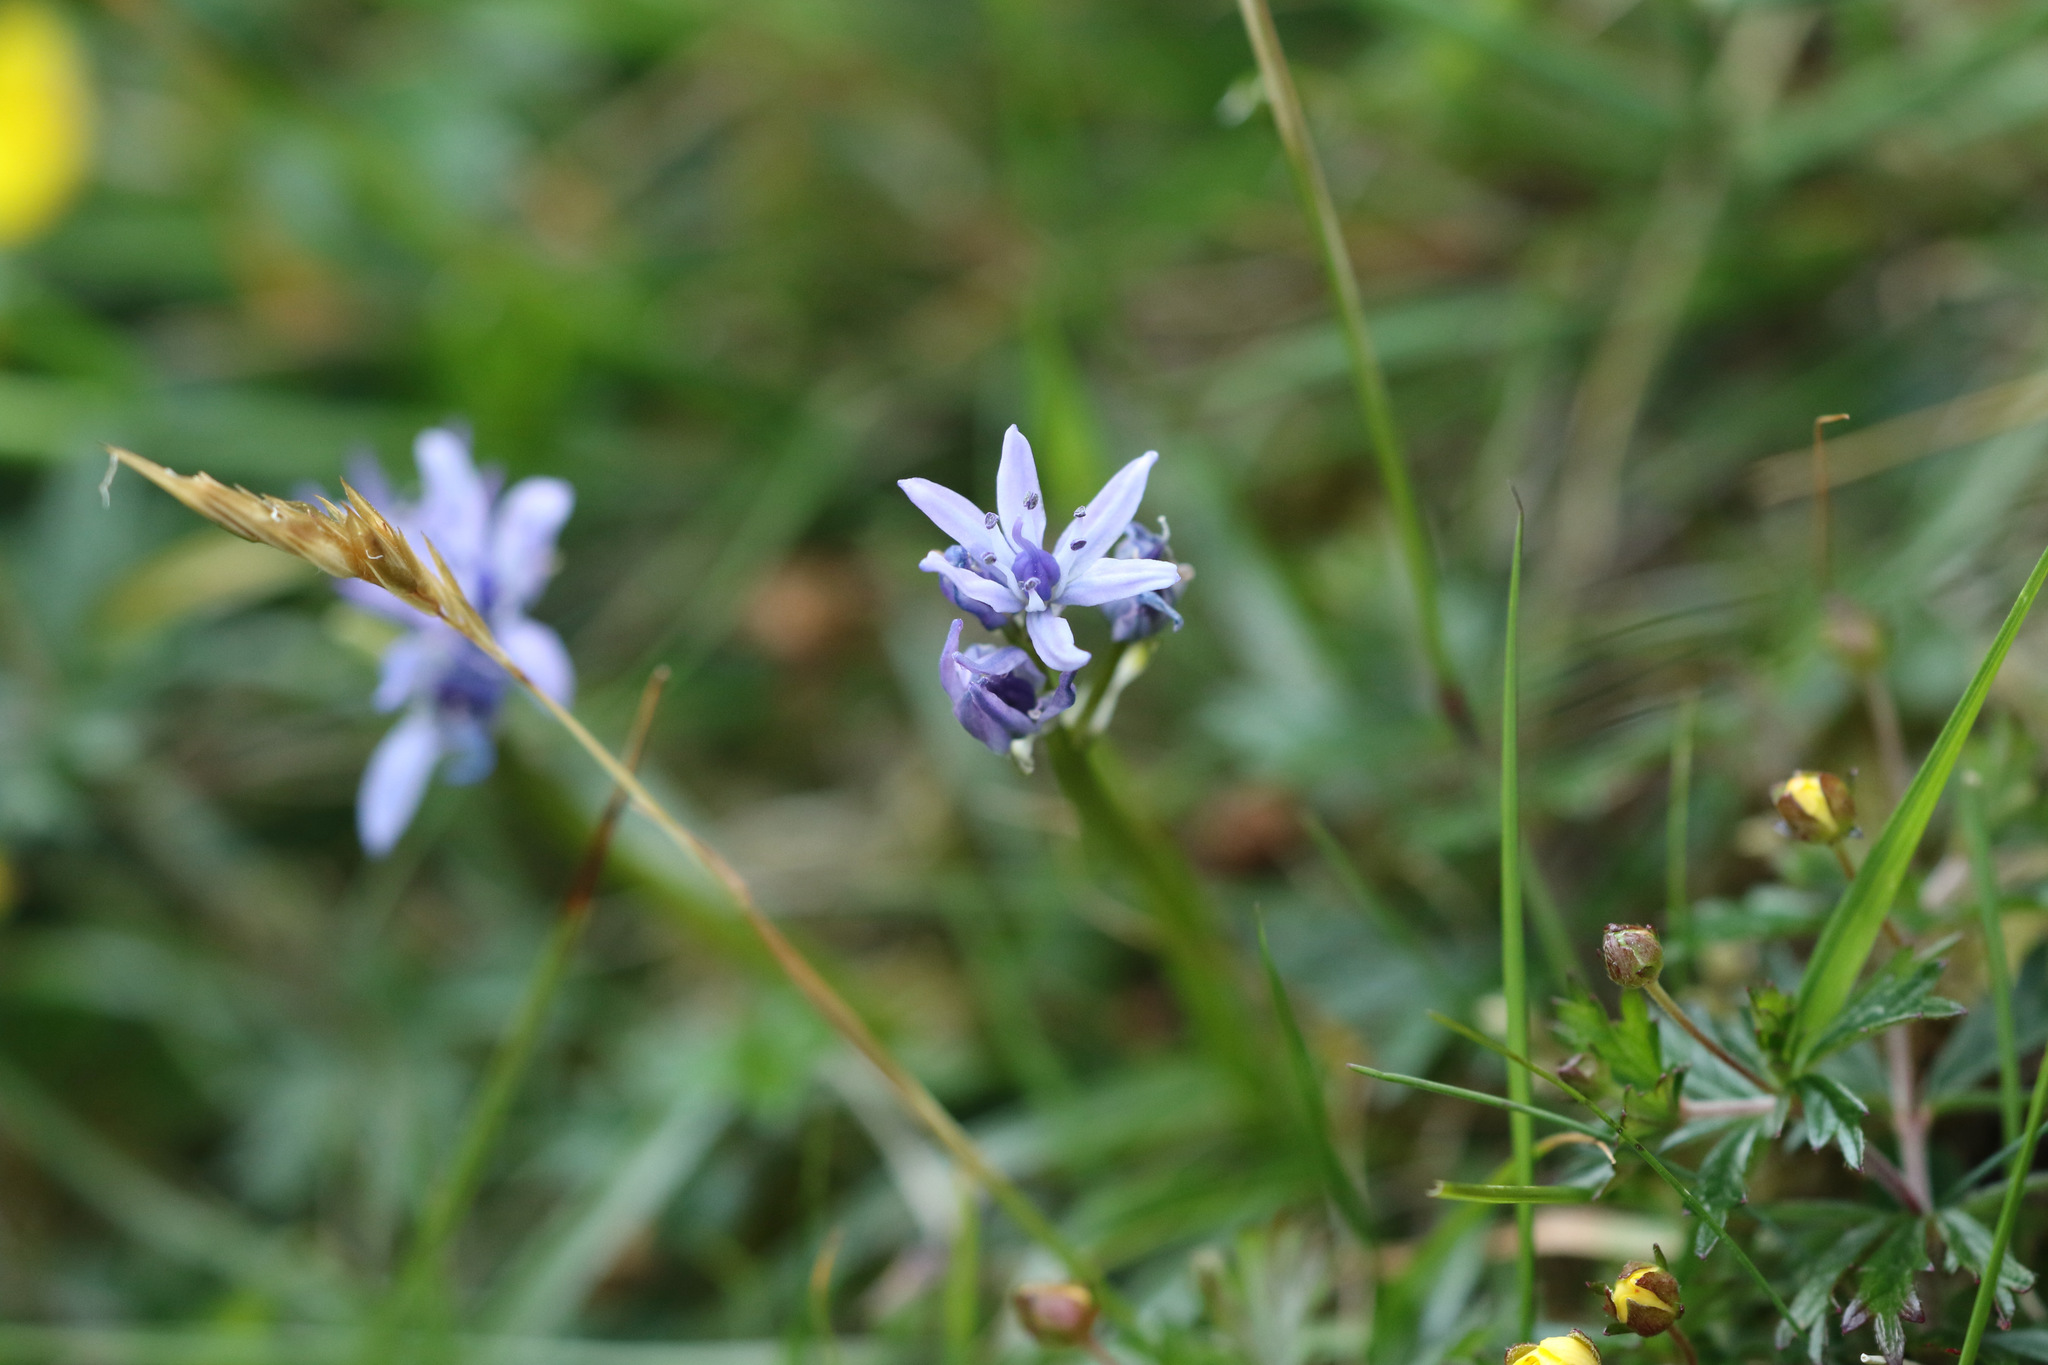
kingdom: Plantae
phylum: Tracheophyta
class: Liliopsida
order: Asparagales
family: Asparagaceae
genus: Scilla
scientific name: Scilla verna
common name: Spring squill
